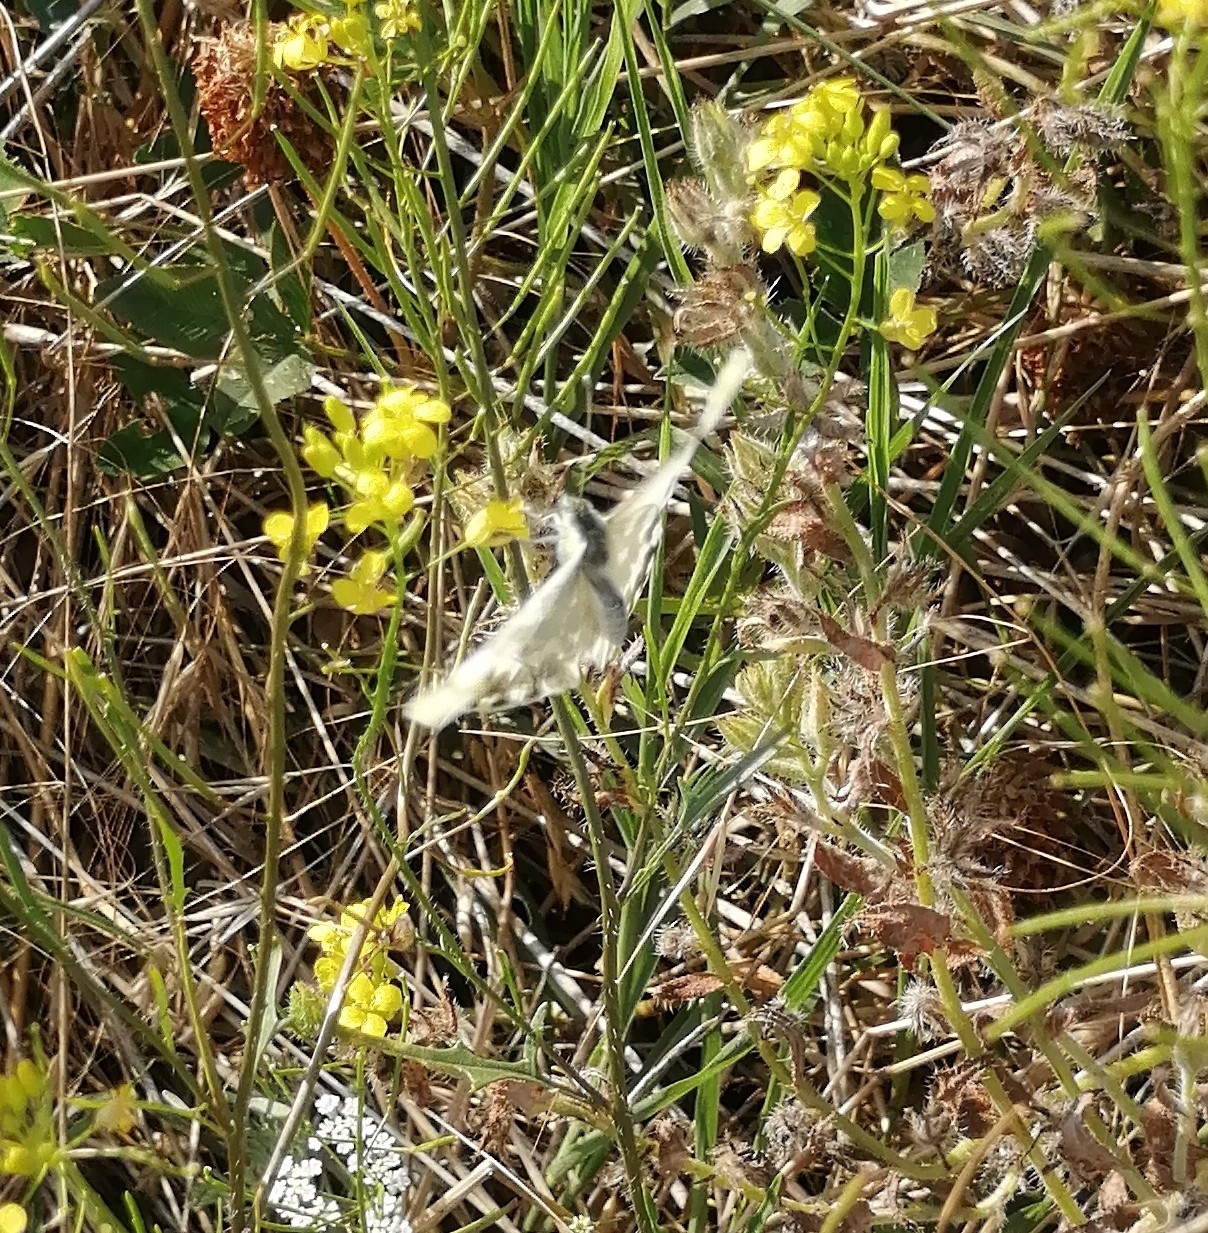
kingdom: Animalia
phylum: Arthropoda
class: Insecta
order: Lepidoptera
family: Pieridae
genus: Pontia
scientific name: Pontia edusa
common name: Eastern bath white
